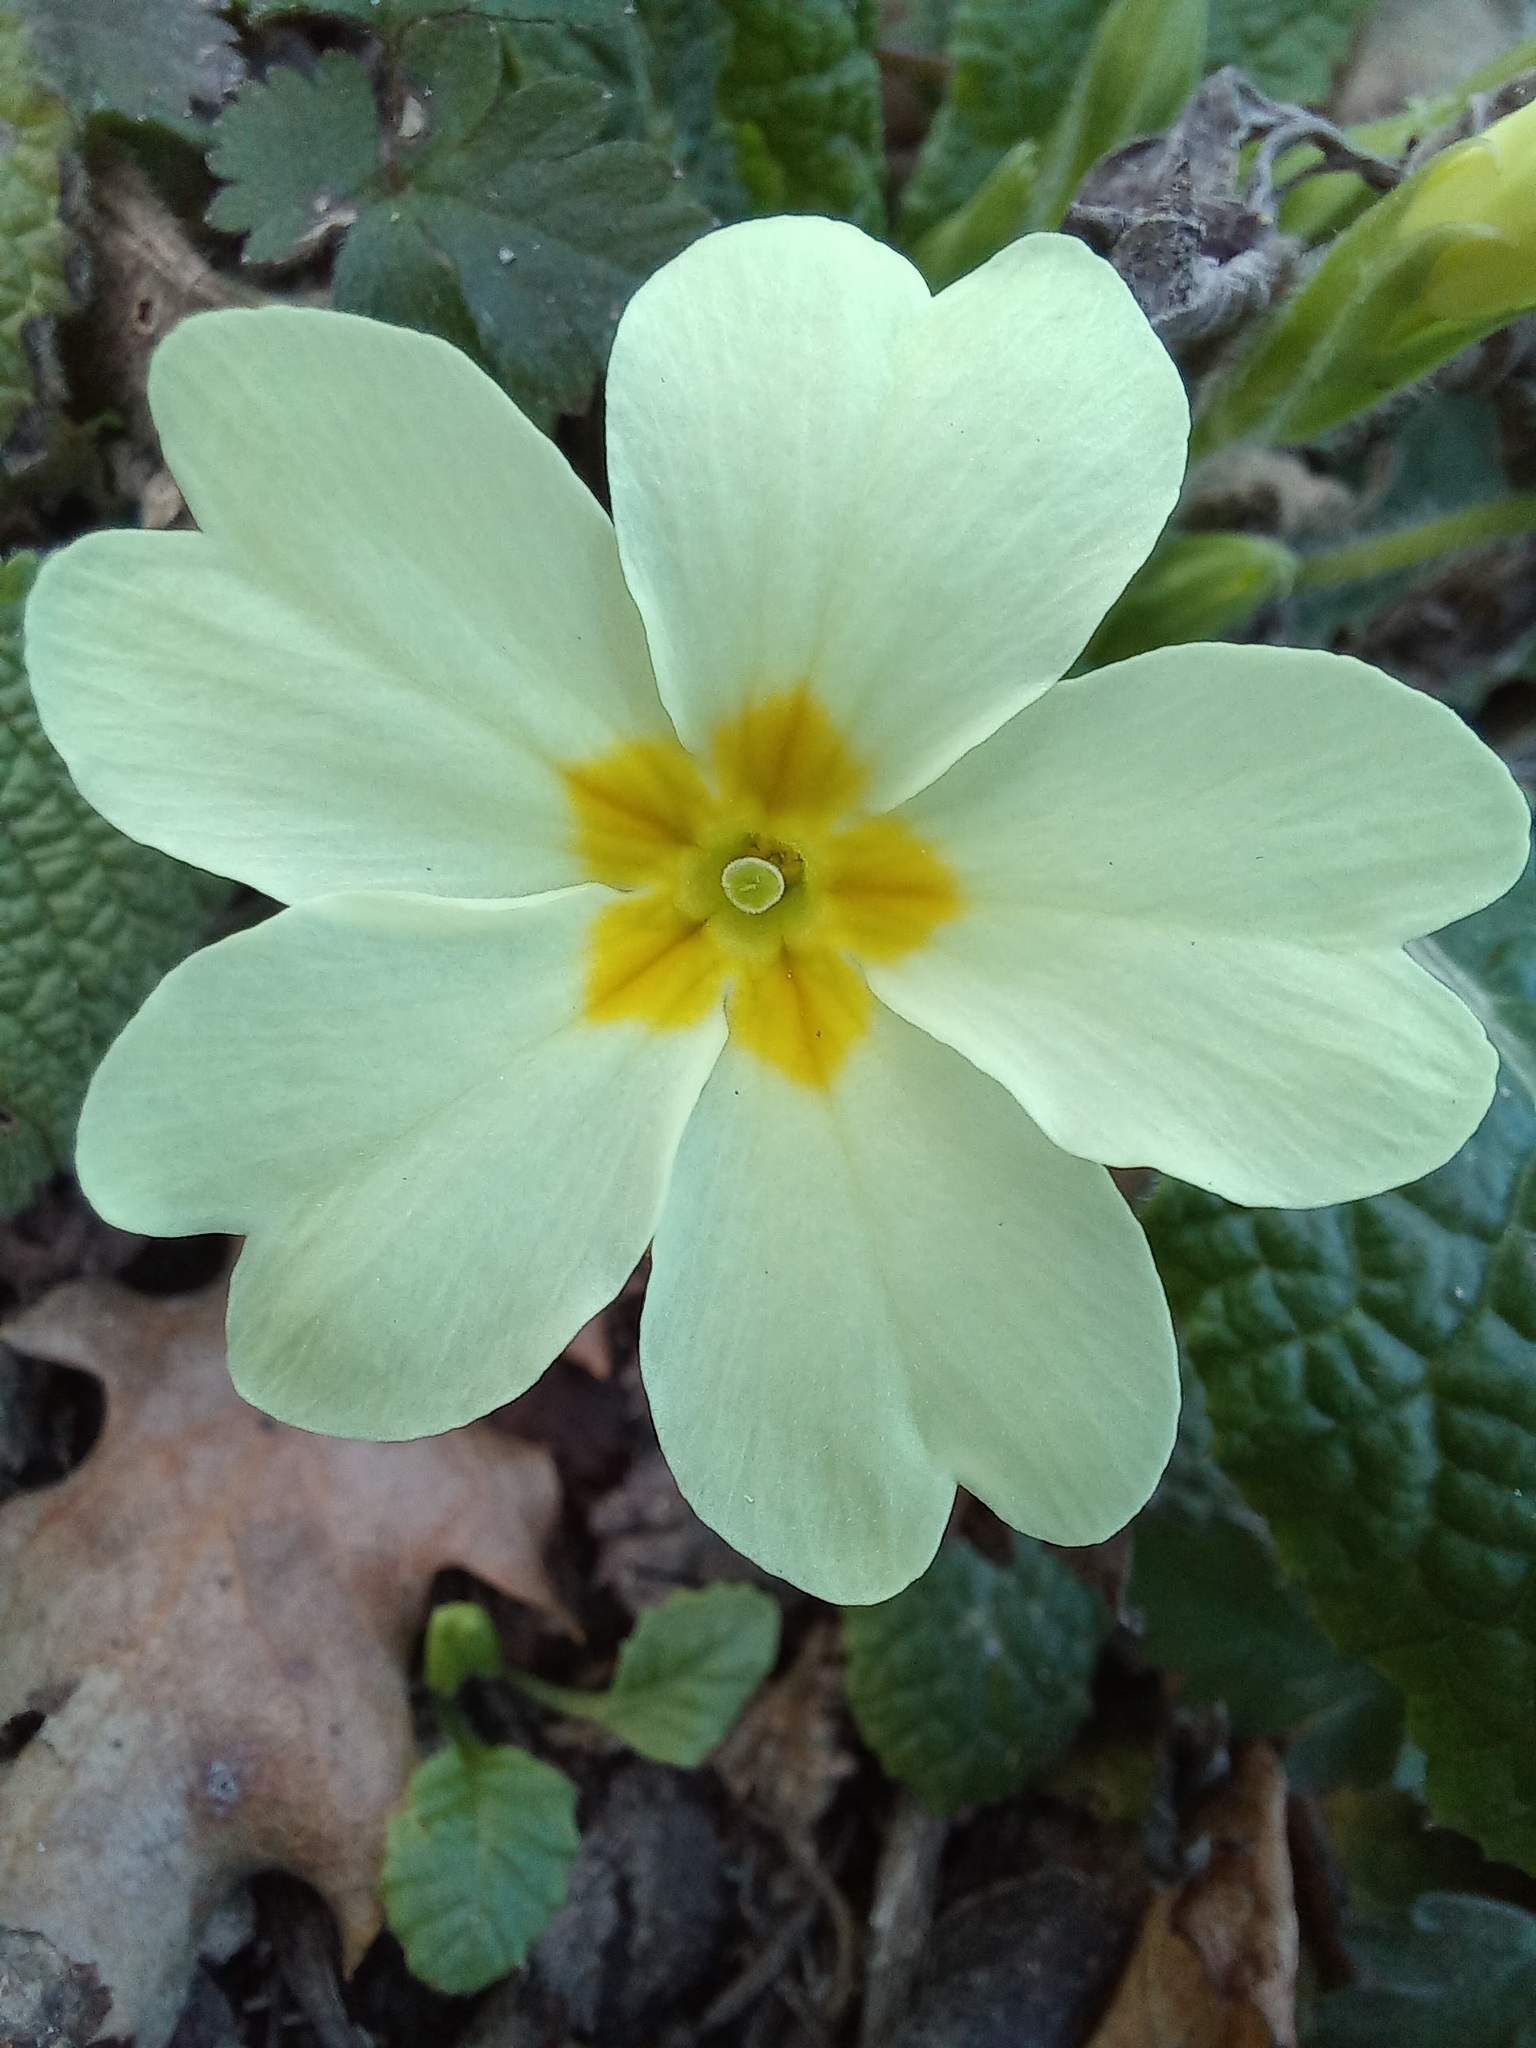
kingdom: Plantae
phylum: Tracheophyta
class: Magnoliopsida
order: Ericales
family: Primulaceae
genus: Primula
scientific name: Primula vulgaris
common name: Primrose
